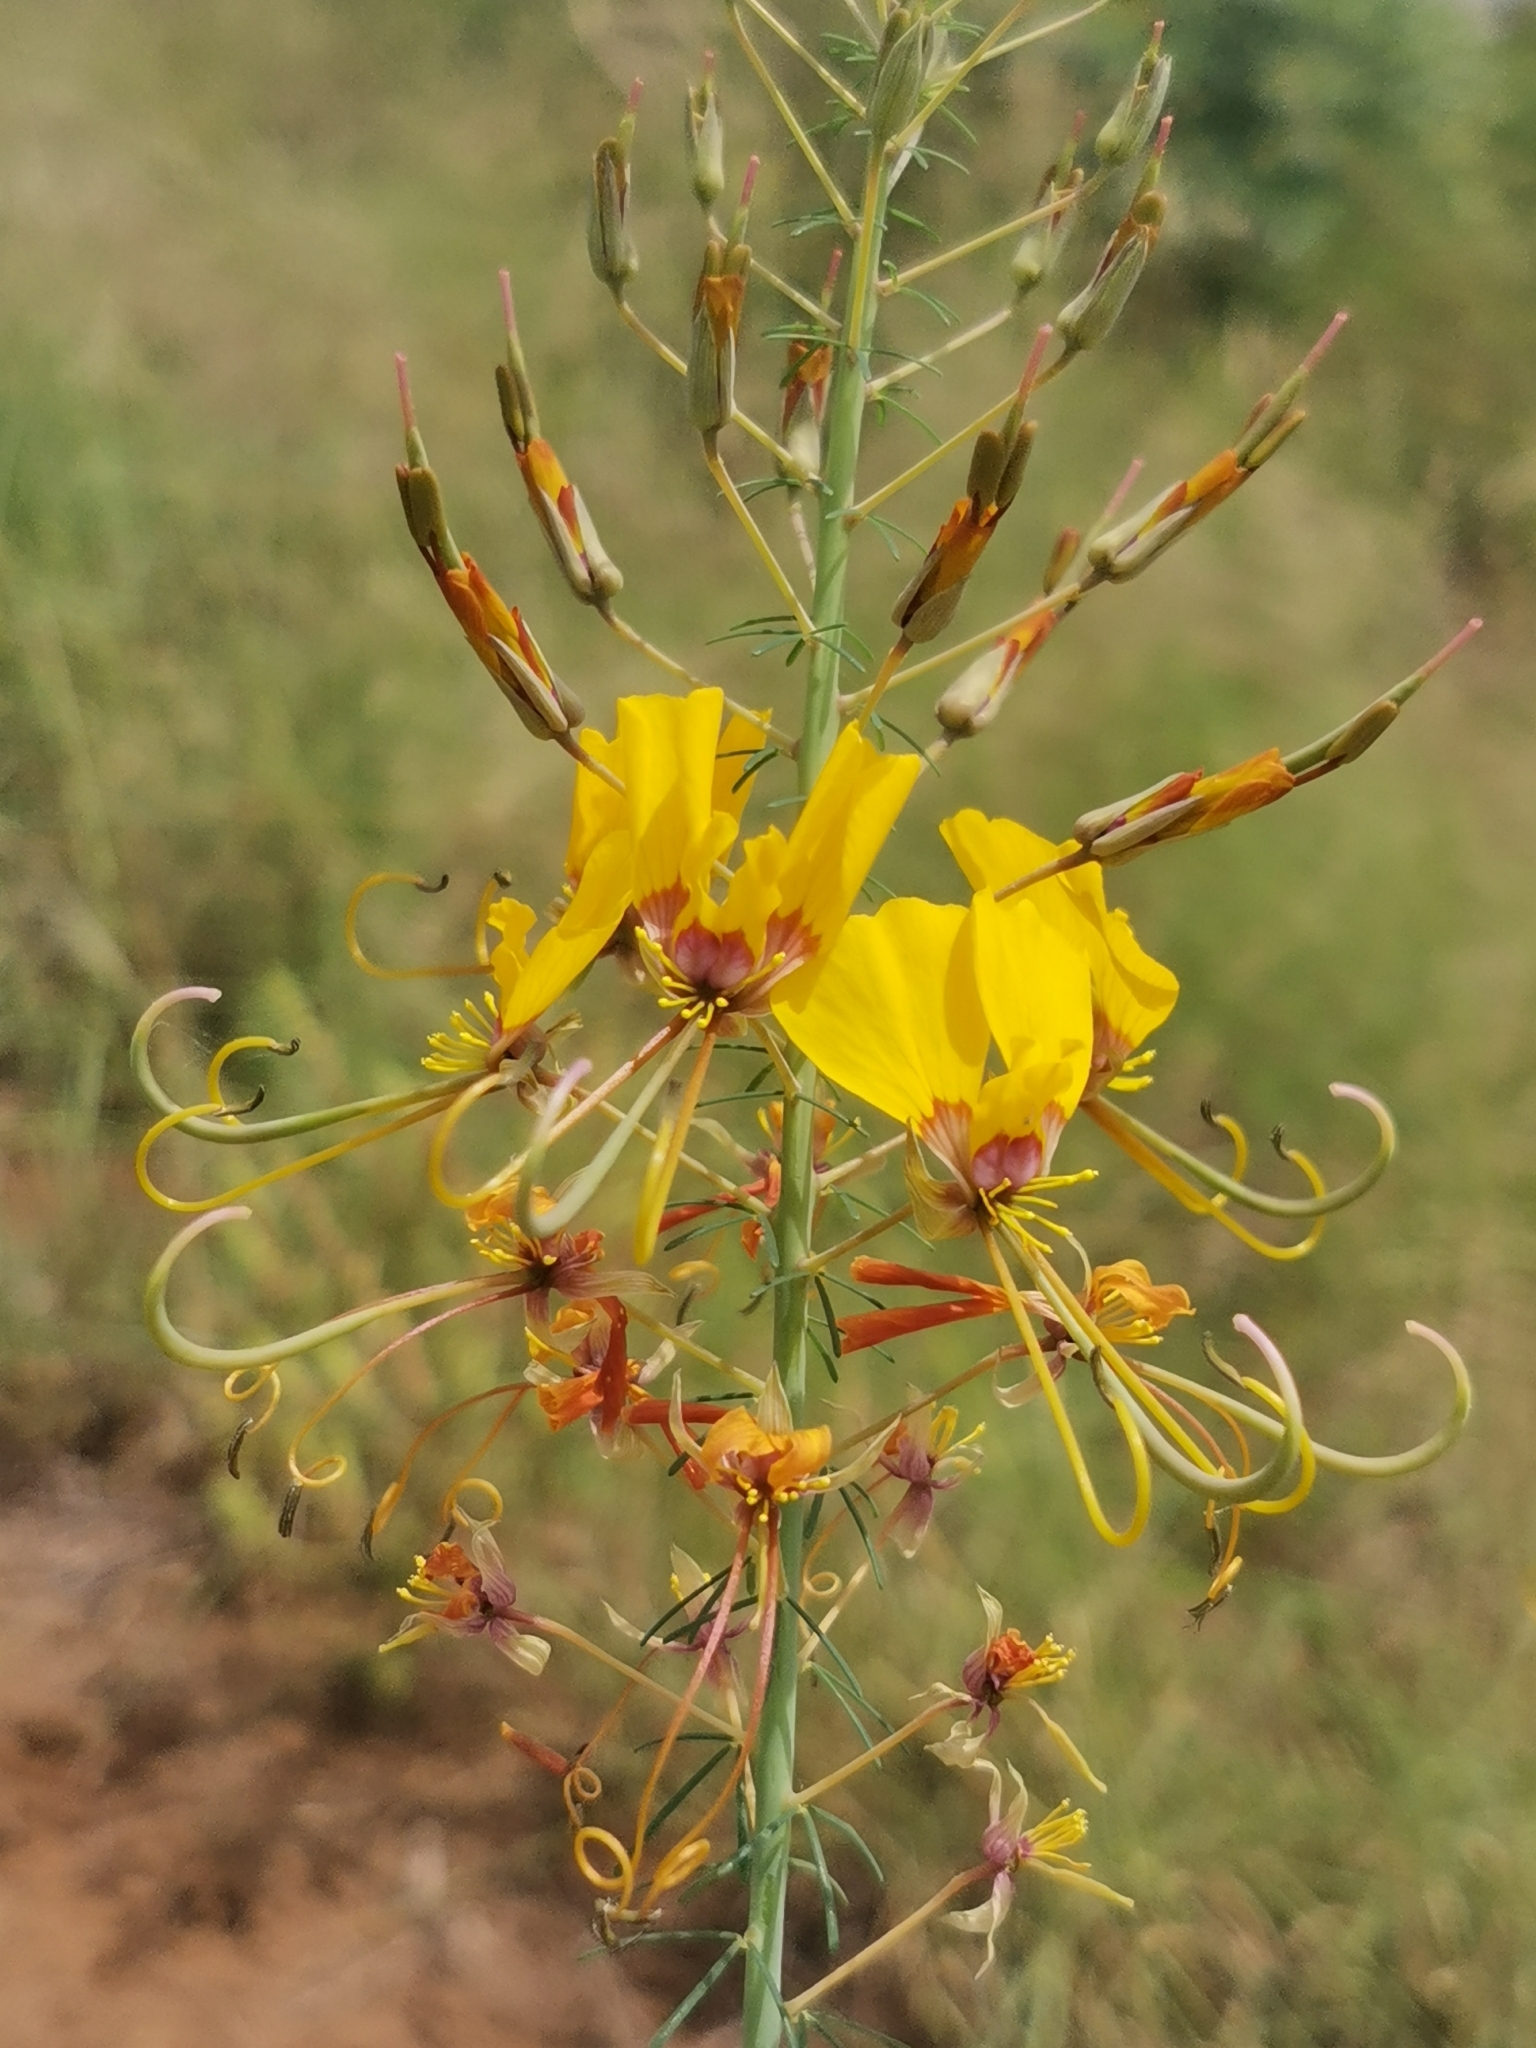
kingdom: Plantae
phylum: Tracheophyta
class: Magnoliopsida
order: Brassicales
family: Cleomaceae
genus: Coalisina
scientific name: Coalisina
